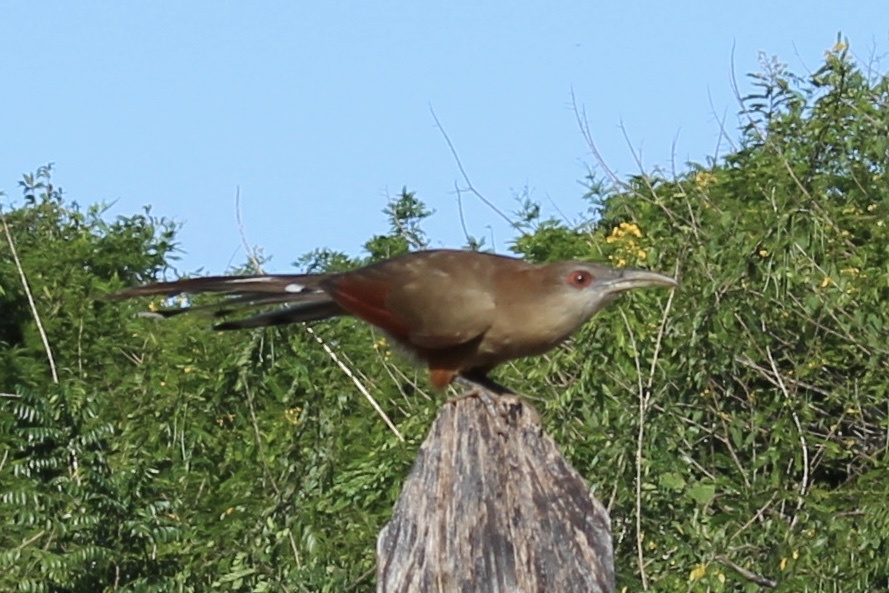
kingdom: Animalia
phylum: Chordata
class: Aves
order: Cuculiformes
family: Cuculidae
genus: Saurothera
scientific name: Saurothera merlini
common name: Great lizard-cuckoo
